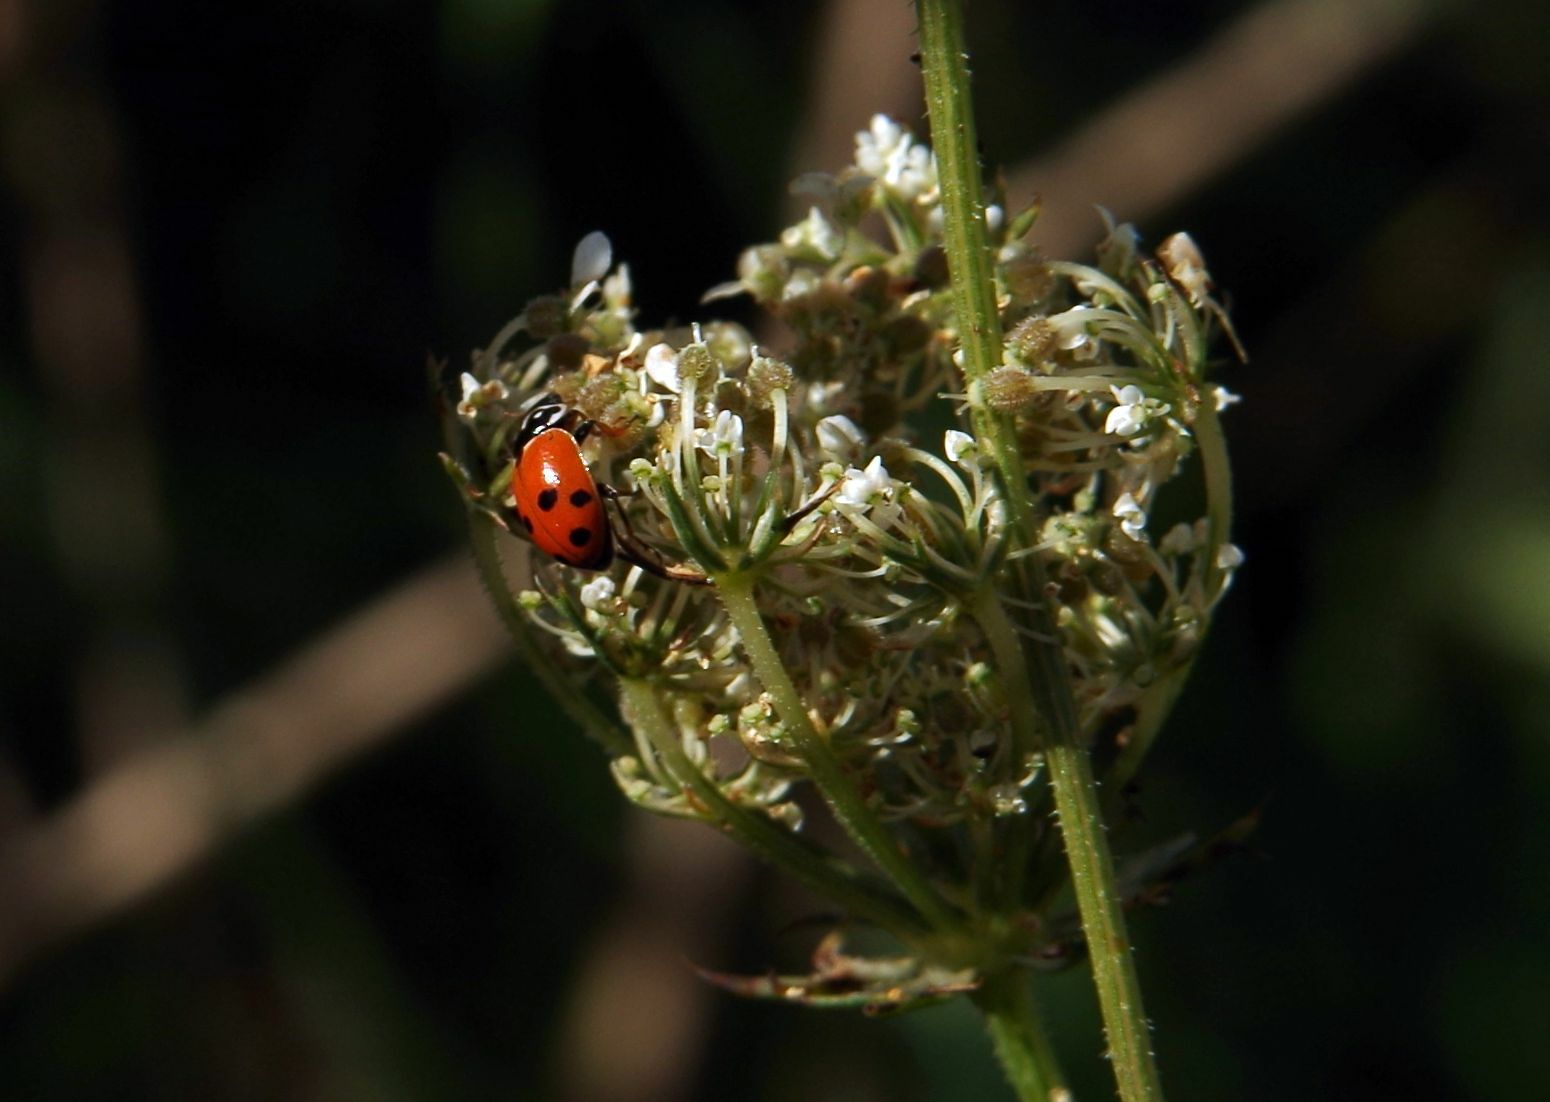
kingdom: Animalia
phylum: Arthropoda
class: Insecta
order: Coleoptera
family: Coccinellidae
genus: Hippodamia
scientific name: Hippodamia variegata
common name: Ladybird beetle
